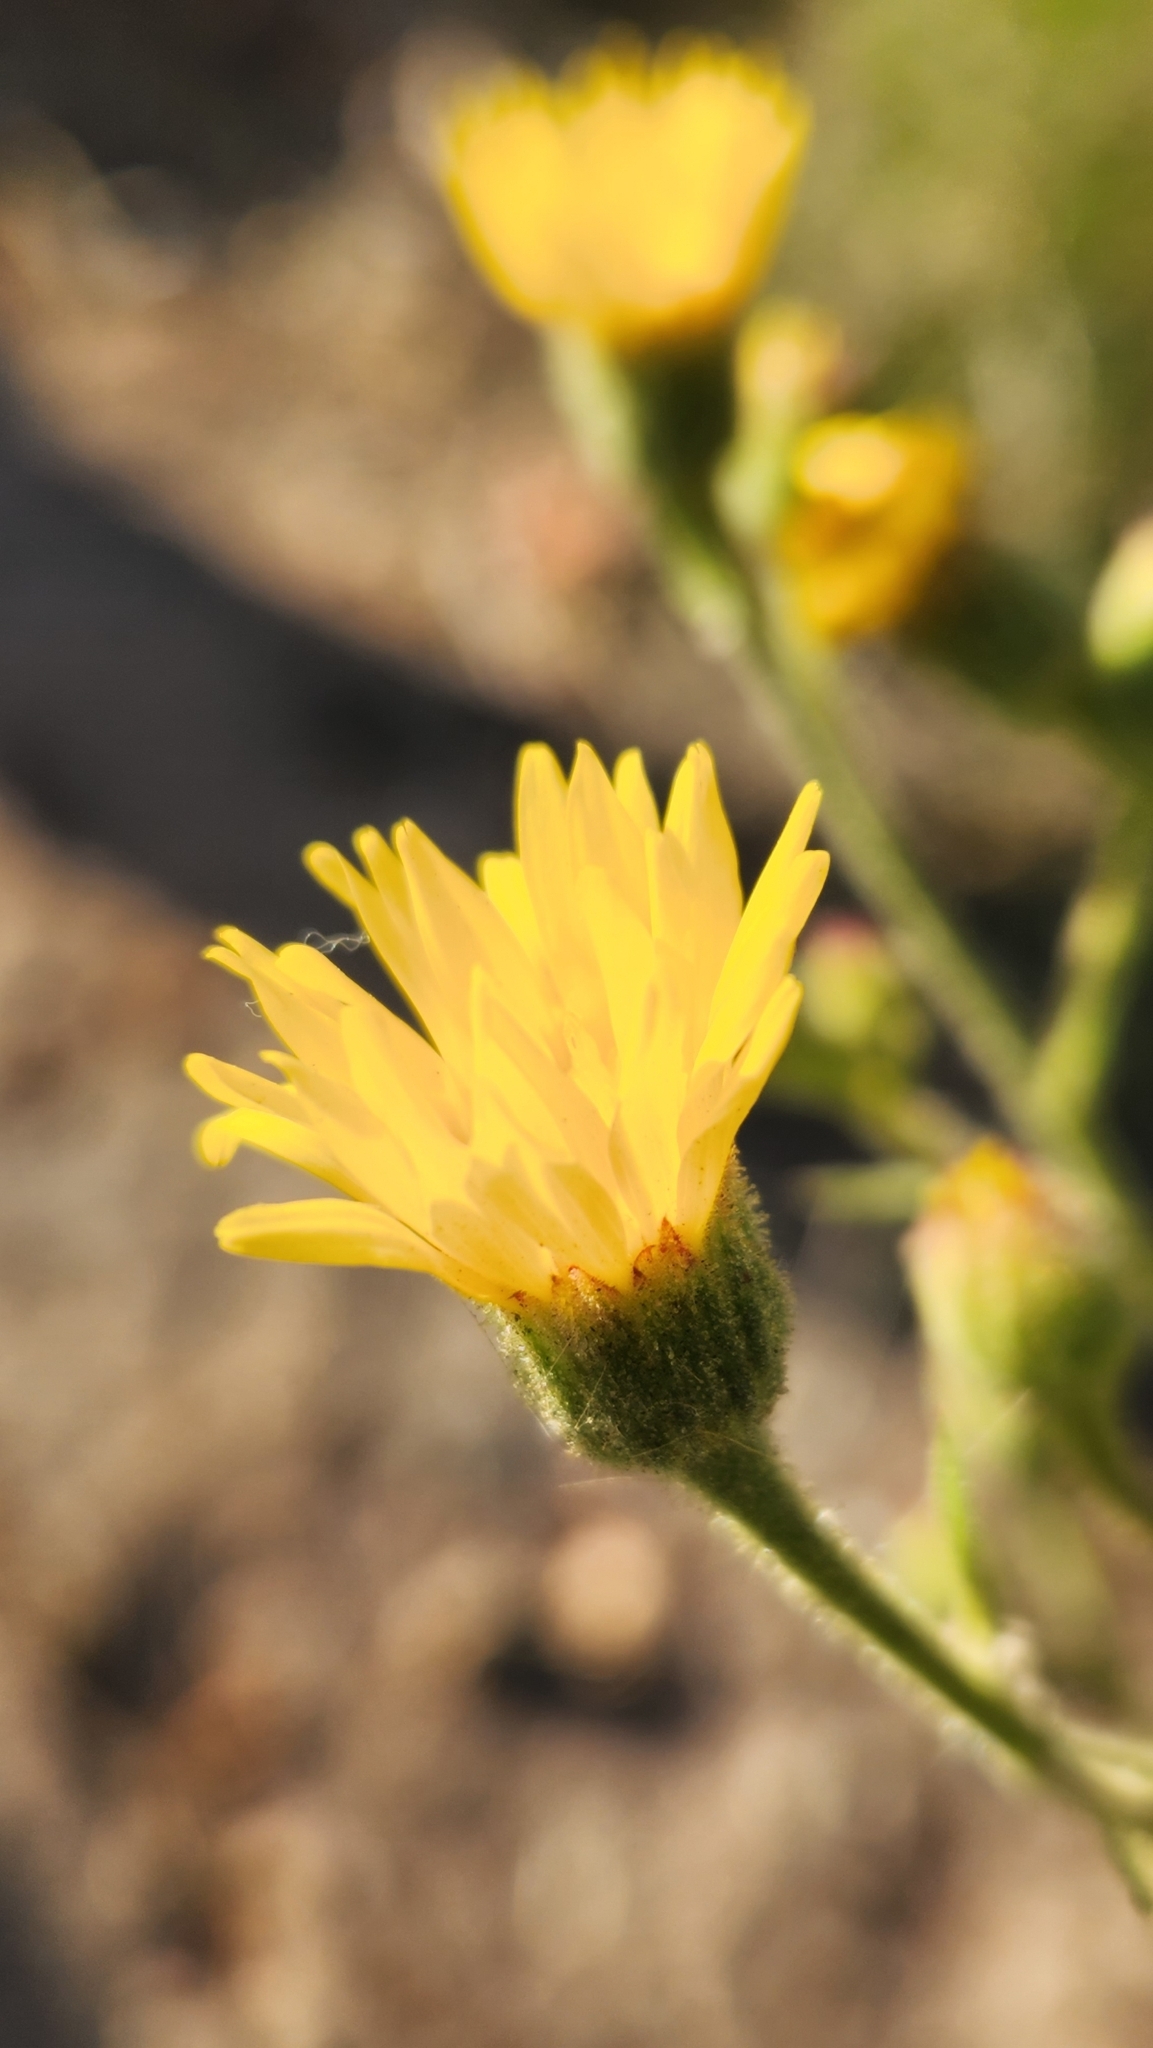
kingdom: Plantae
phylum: Tracheophyta
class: Magnoliopsida
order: Asterales
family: Asteraceae
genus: Heterotheca
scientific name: Heterotheca grandiflora
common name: Telegraphweed
